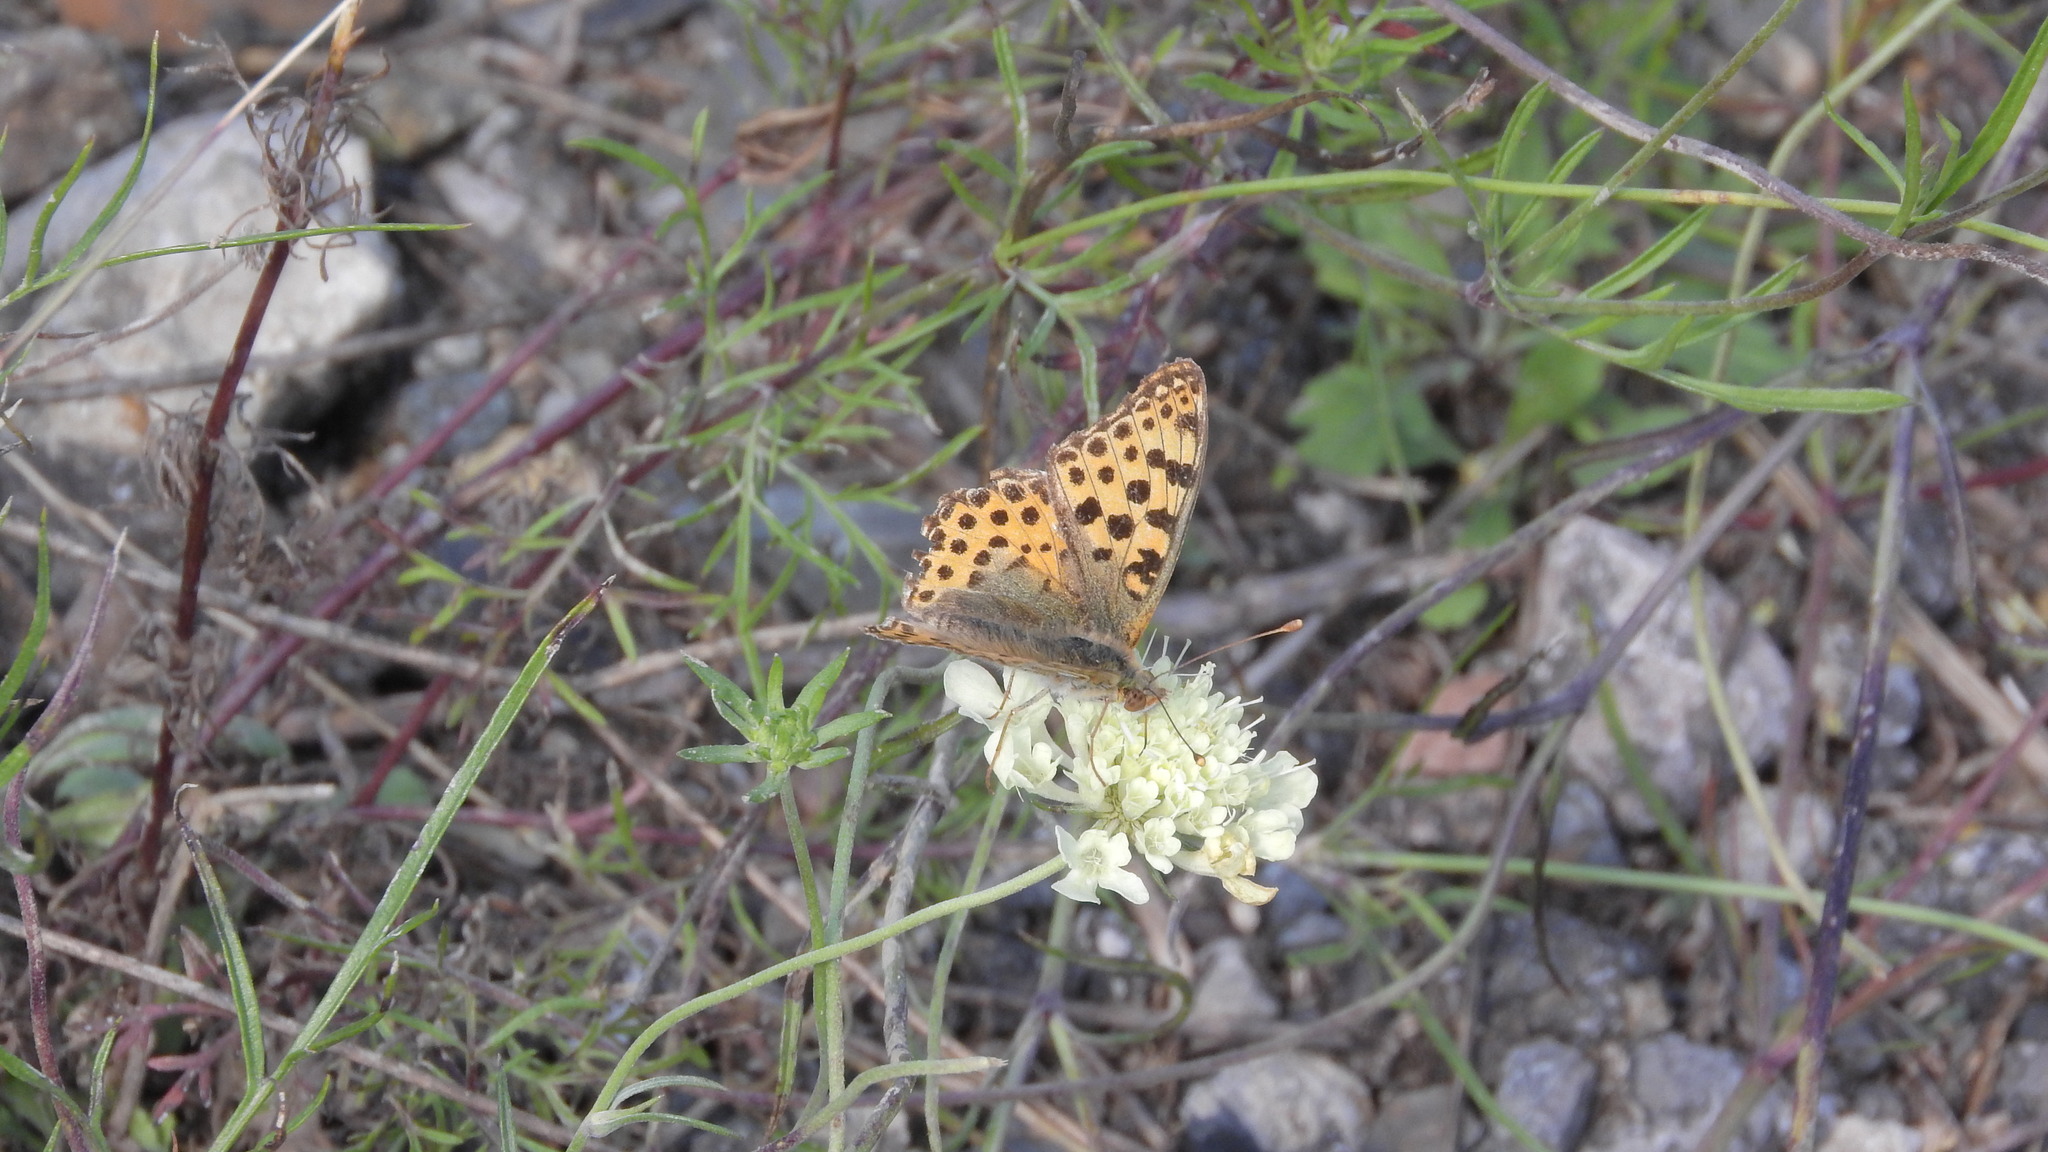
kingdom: Animalia
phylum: Arthropoda
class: Insecta
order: Lepidoptera
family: Nymphalidae
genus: Issoria
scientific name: Issoria lathonia
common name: Queen of spain fritillary
